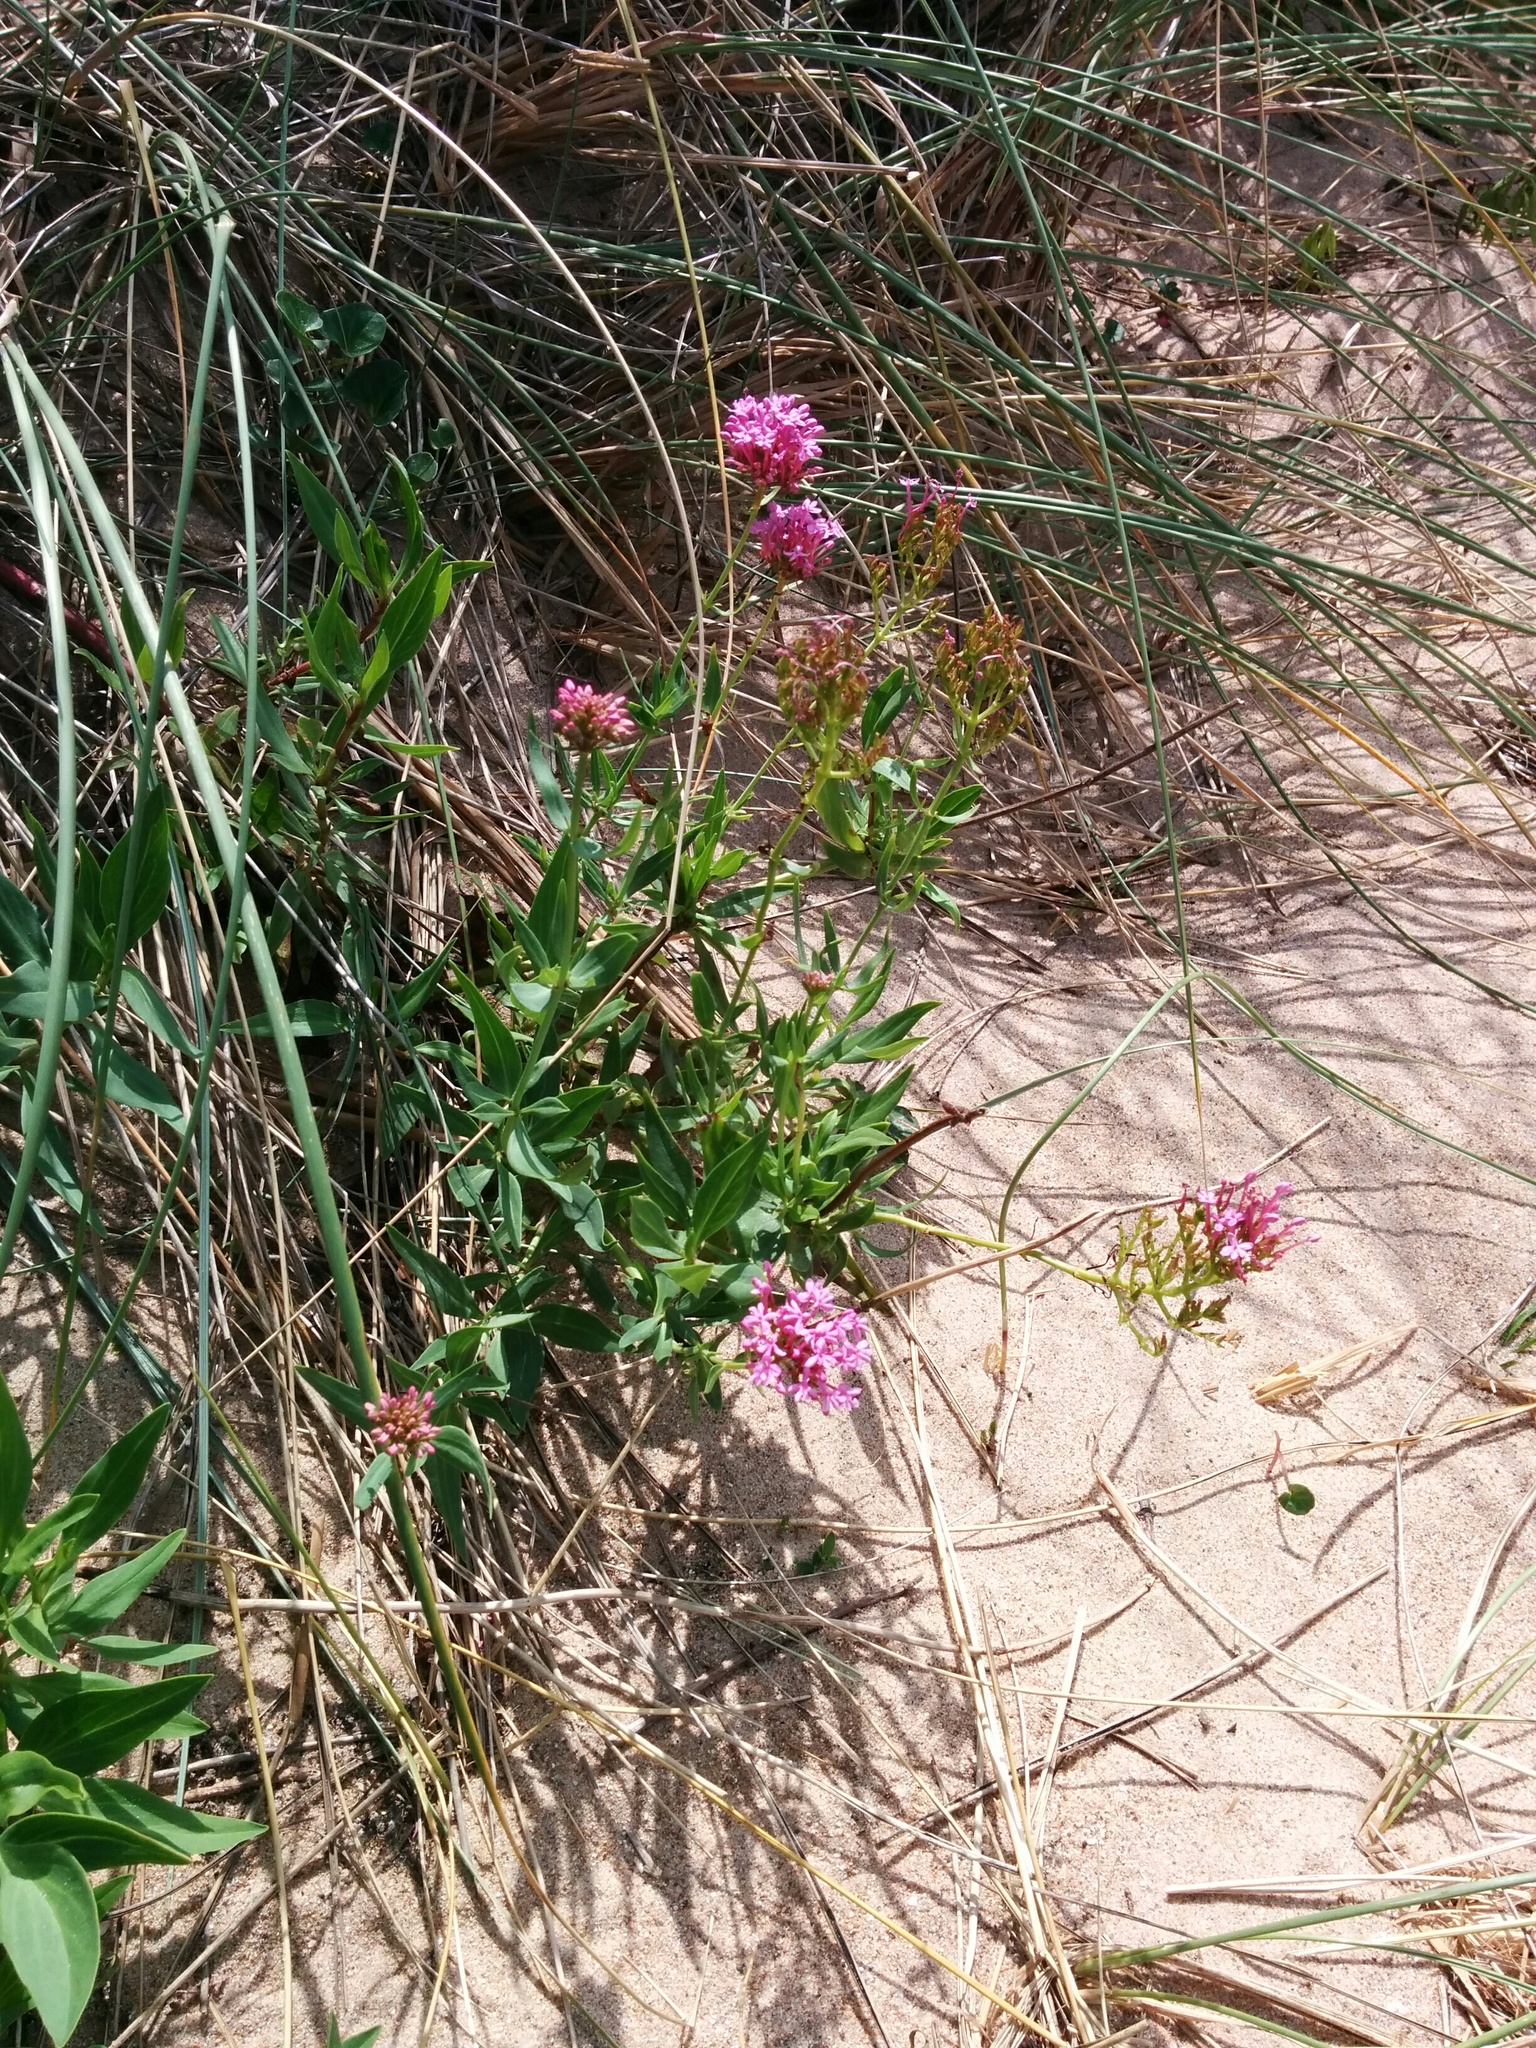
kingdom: Plantae
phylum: Tracheophyta
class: Magnoliopsida
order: Dipsacales
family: Caprifoliaceae
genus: Centranthus
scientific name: Centranthus ruber
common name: Red valerian
